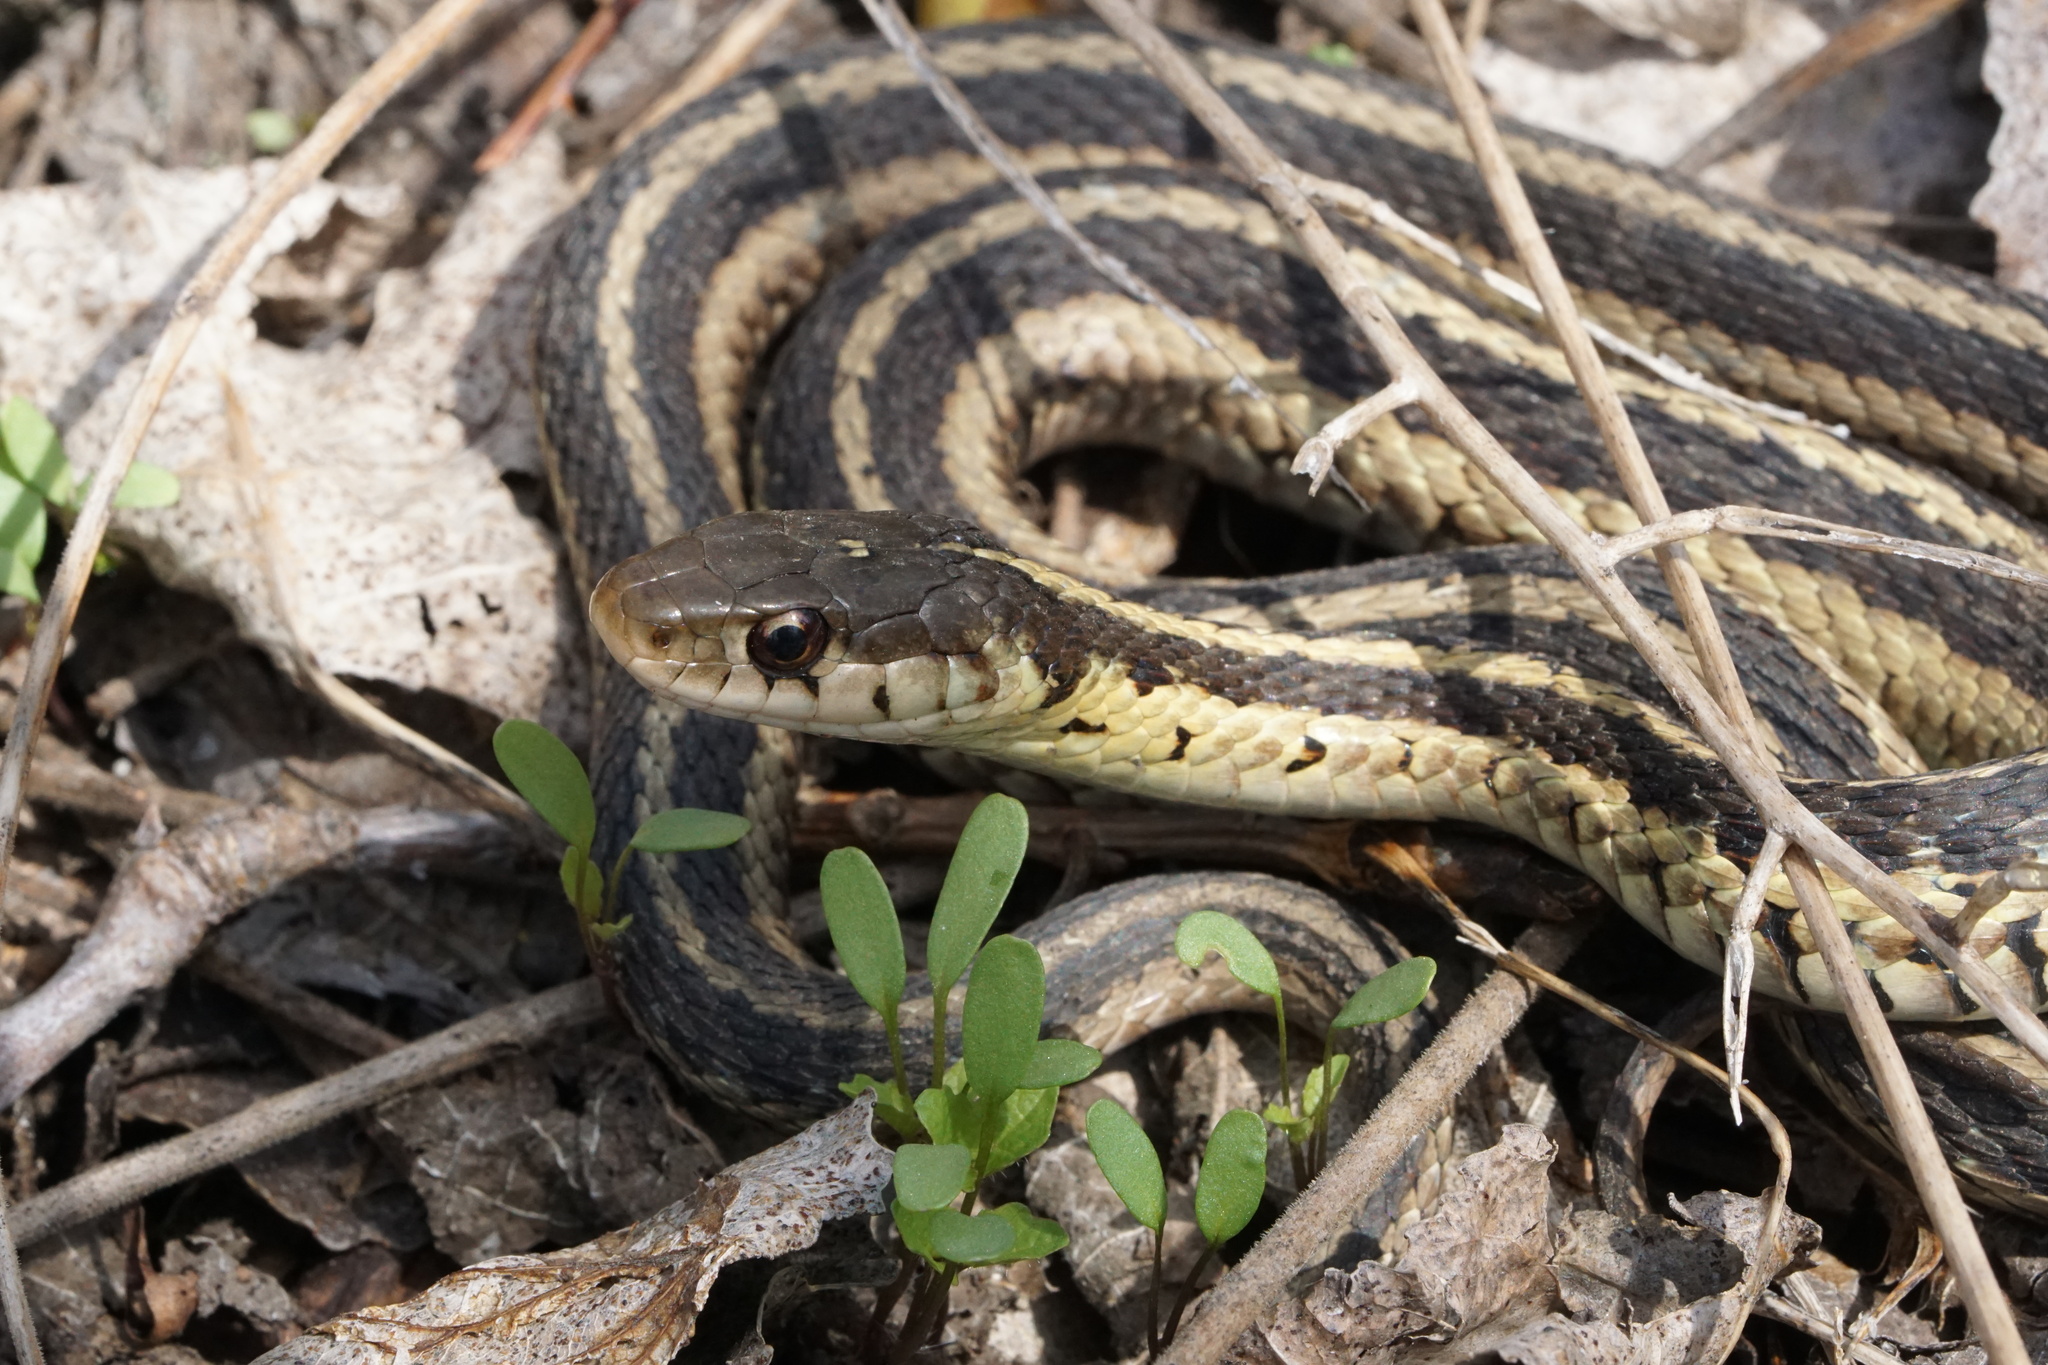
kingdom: Animalia
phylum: Chordata
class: Squamata
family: Colubridae
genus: Thamnophis
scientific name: Thamnophis sirtalis
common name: Common garter snake
